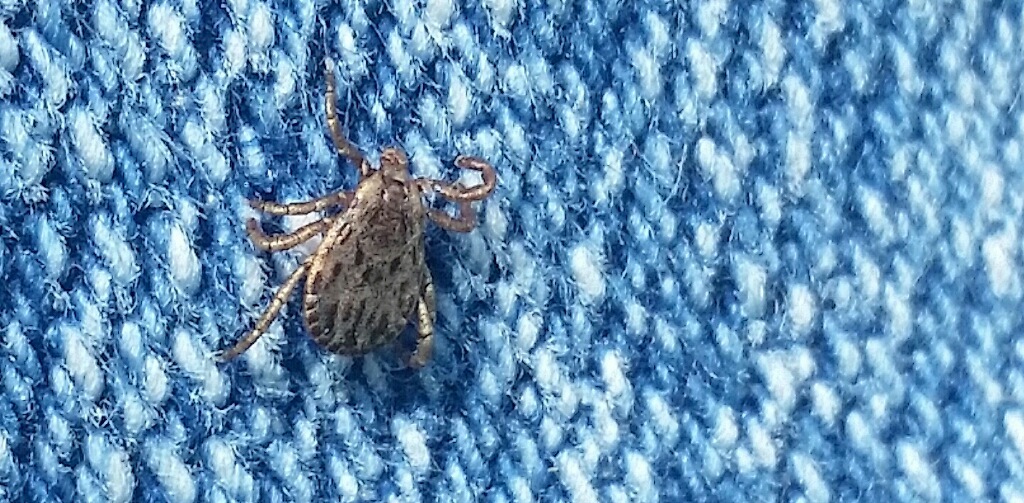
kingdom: Animalia
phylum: Arthropoda
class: Arachnida
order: Ixodida
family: Ixodidae
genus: Dermacentor
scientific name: Dermacentor occidentalis
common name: Net tick
